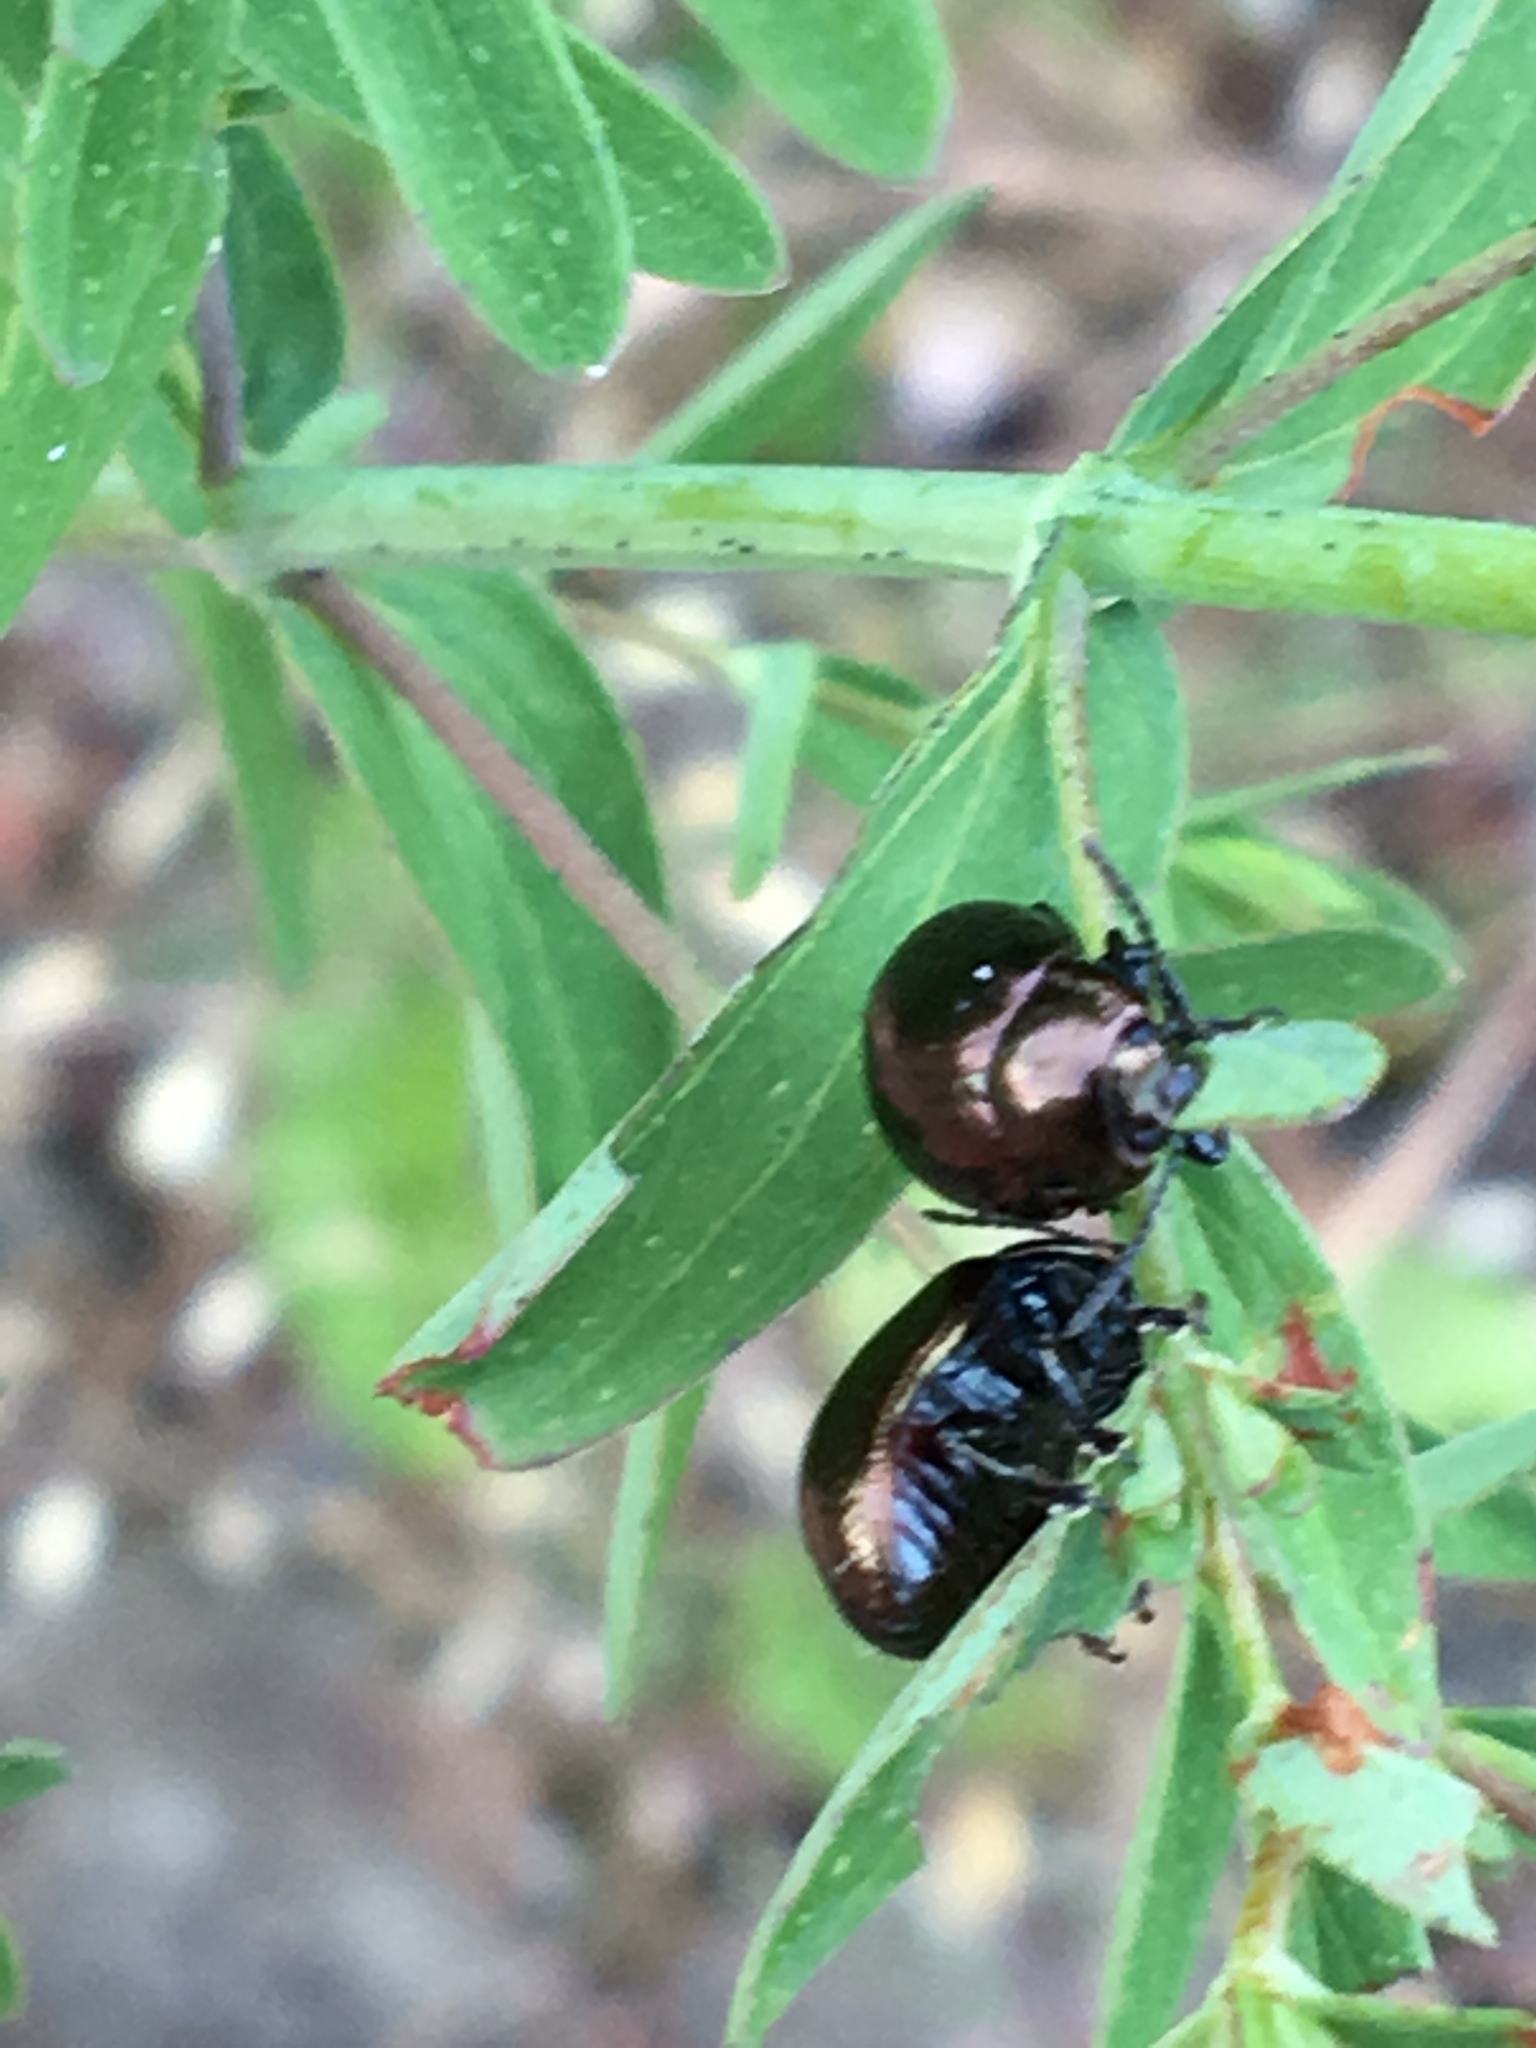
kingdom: Animalia
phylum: Arthropoda
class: Insecta
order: Coleoptera
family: Chrysomelidae
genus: Chrysolina
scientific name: Chrysolina hyperici
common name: St. johnswort beetle
